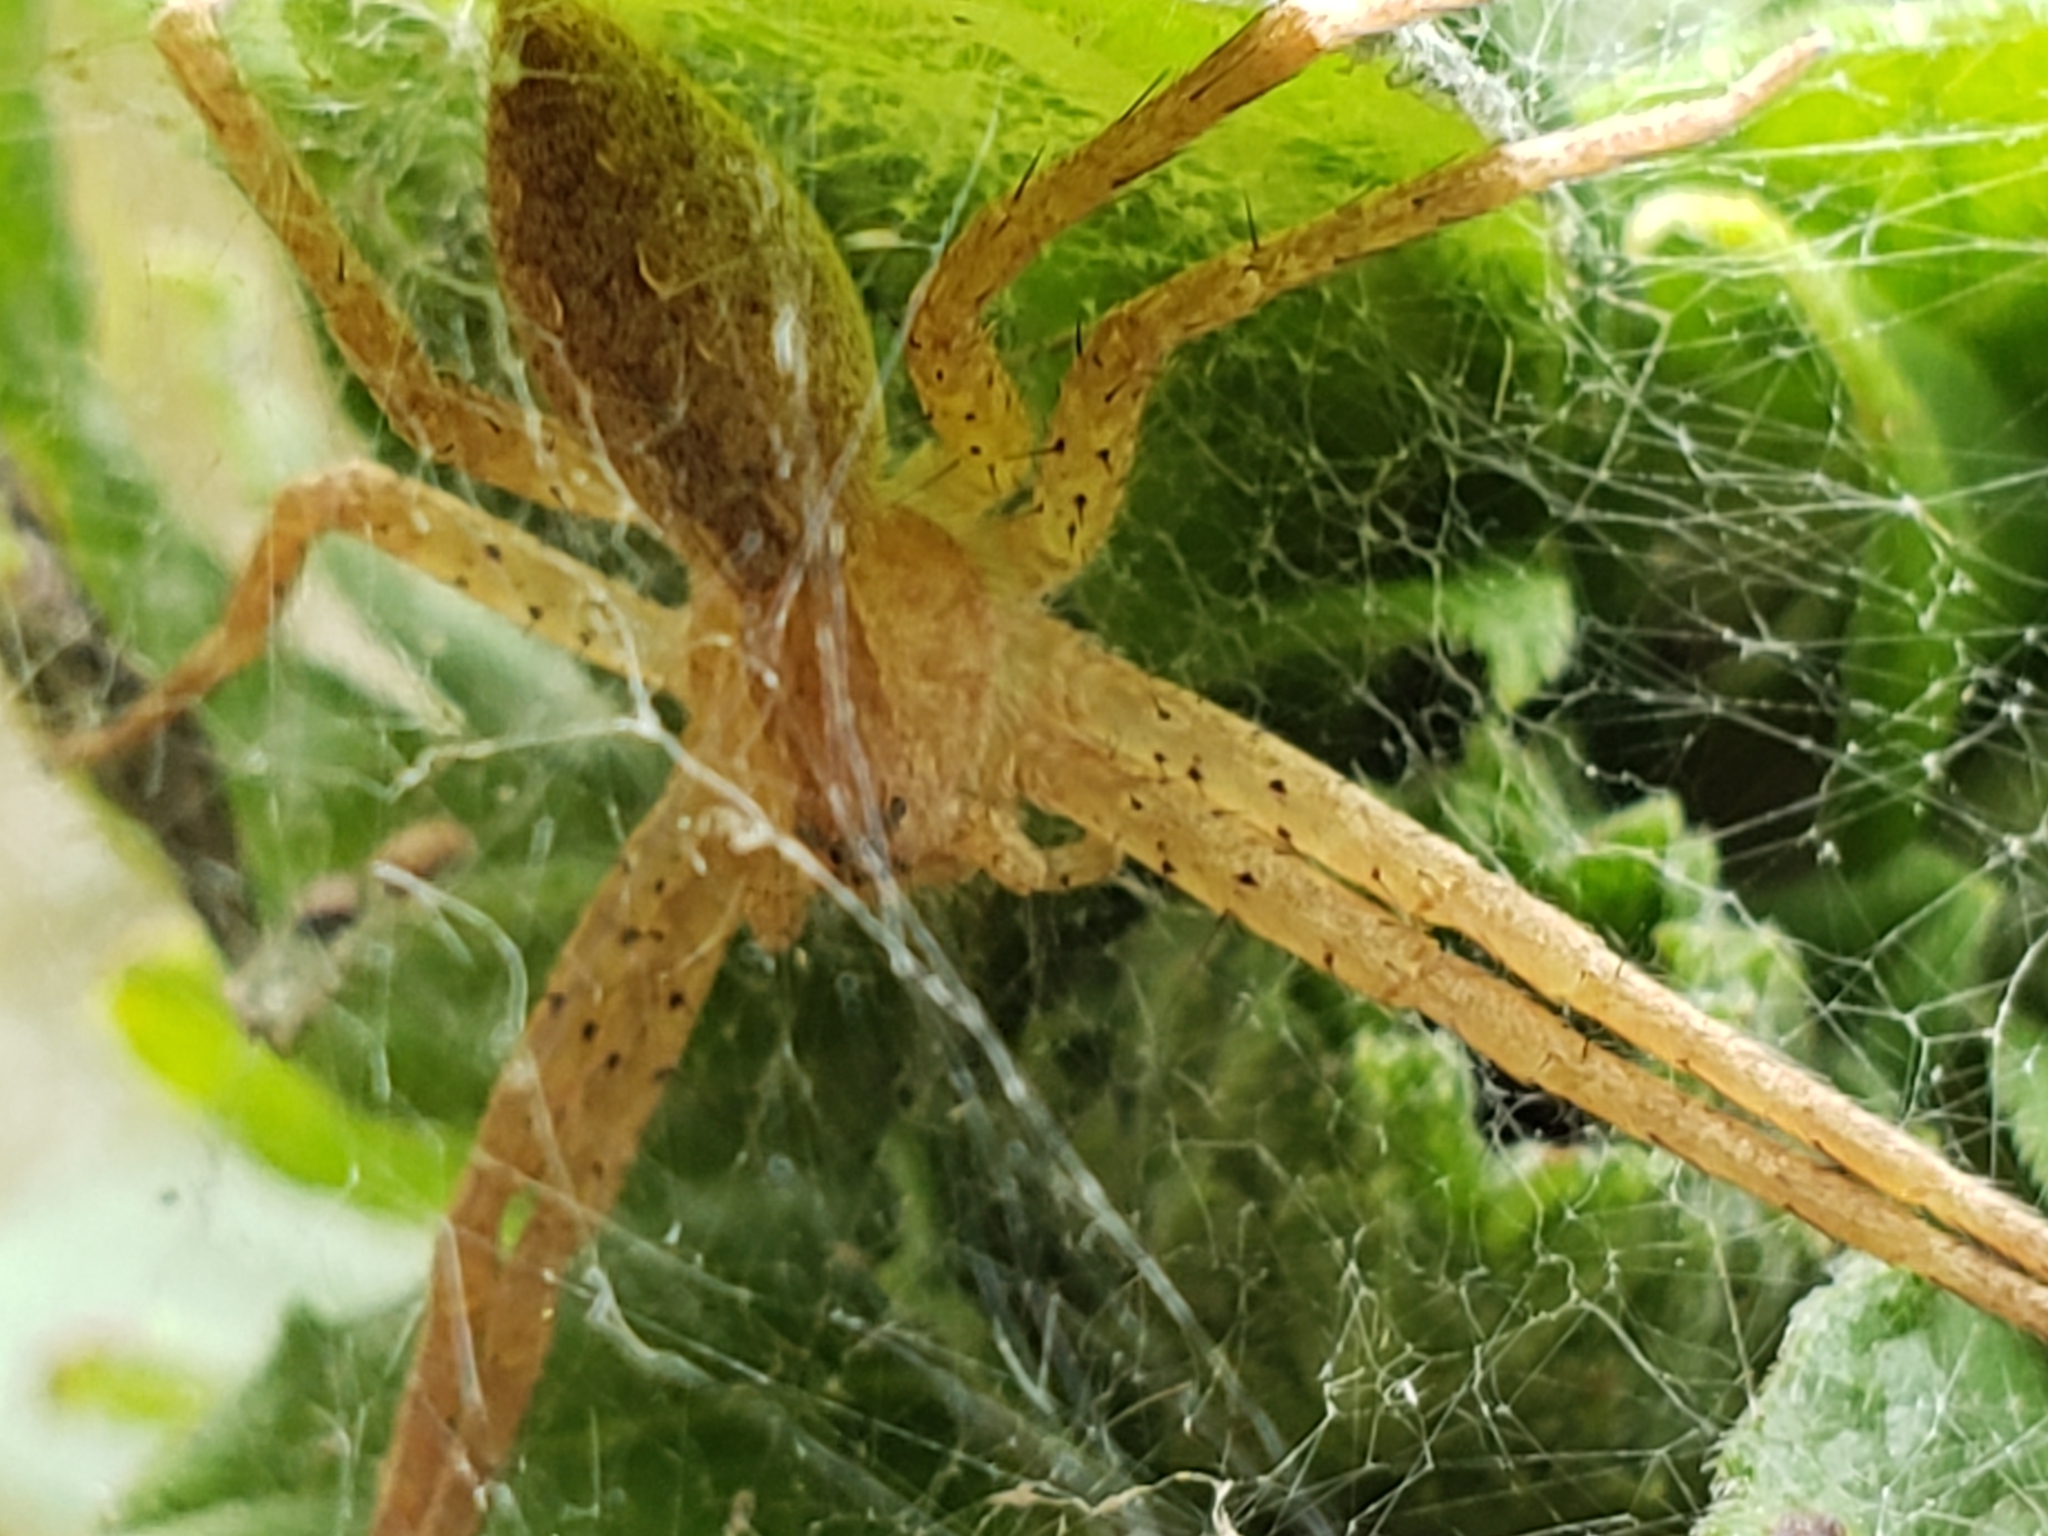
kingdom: Animalia
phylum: Arthropoda
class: Arachnida
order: Araneae
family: Pisauridae
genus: Pisaurina
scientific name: Pisaurina mira
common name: American nursery web spider
